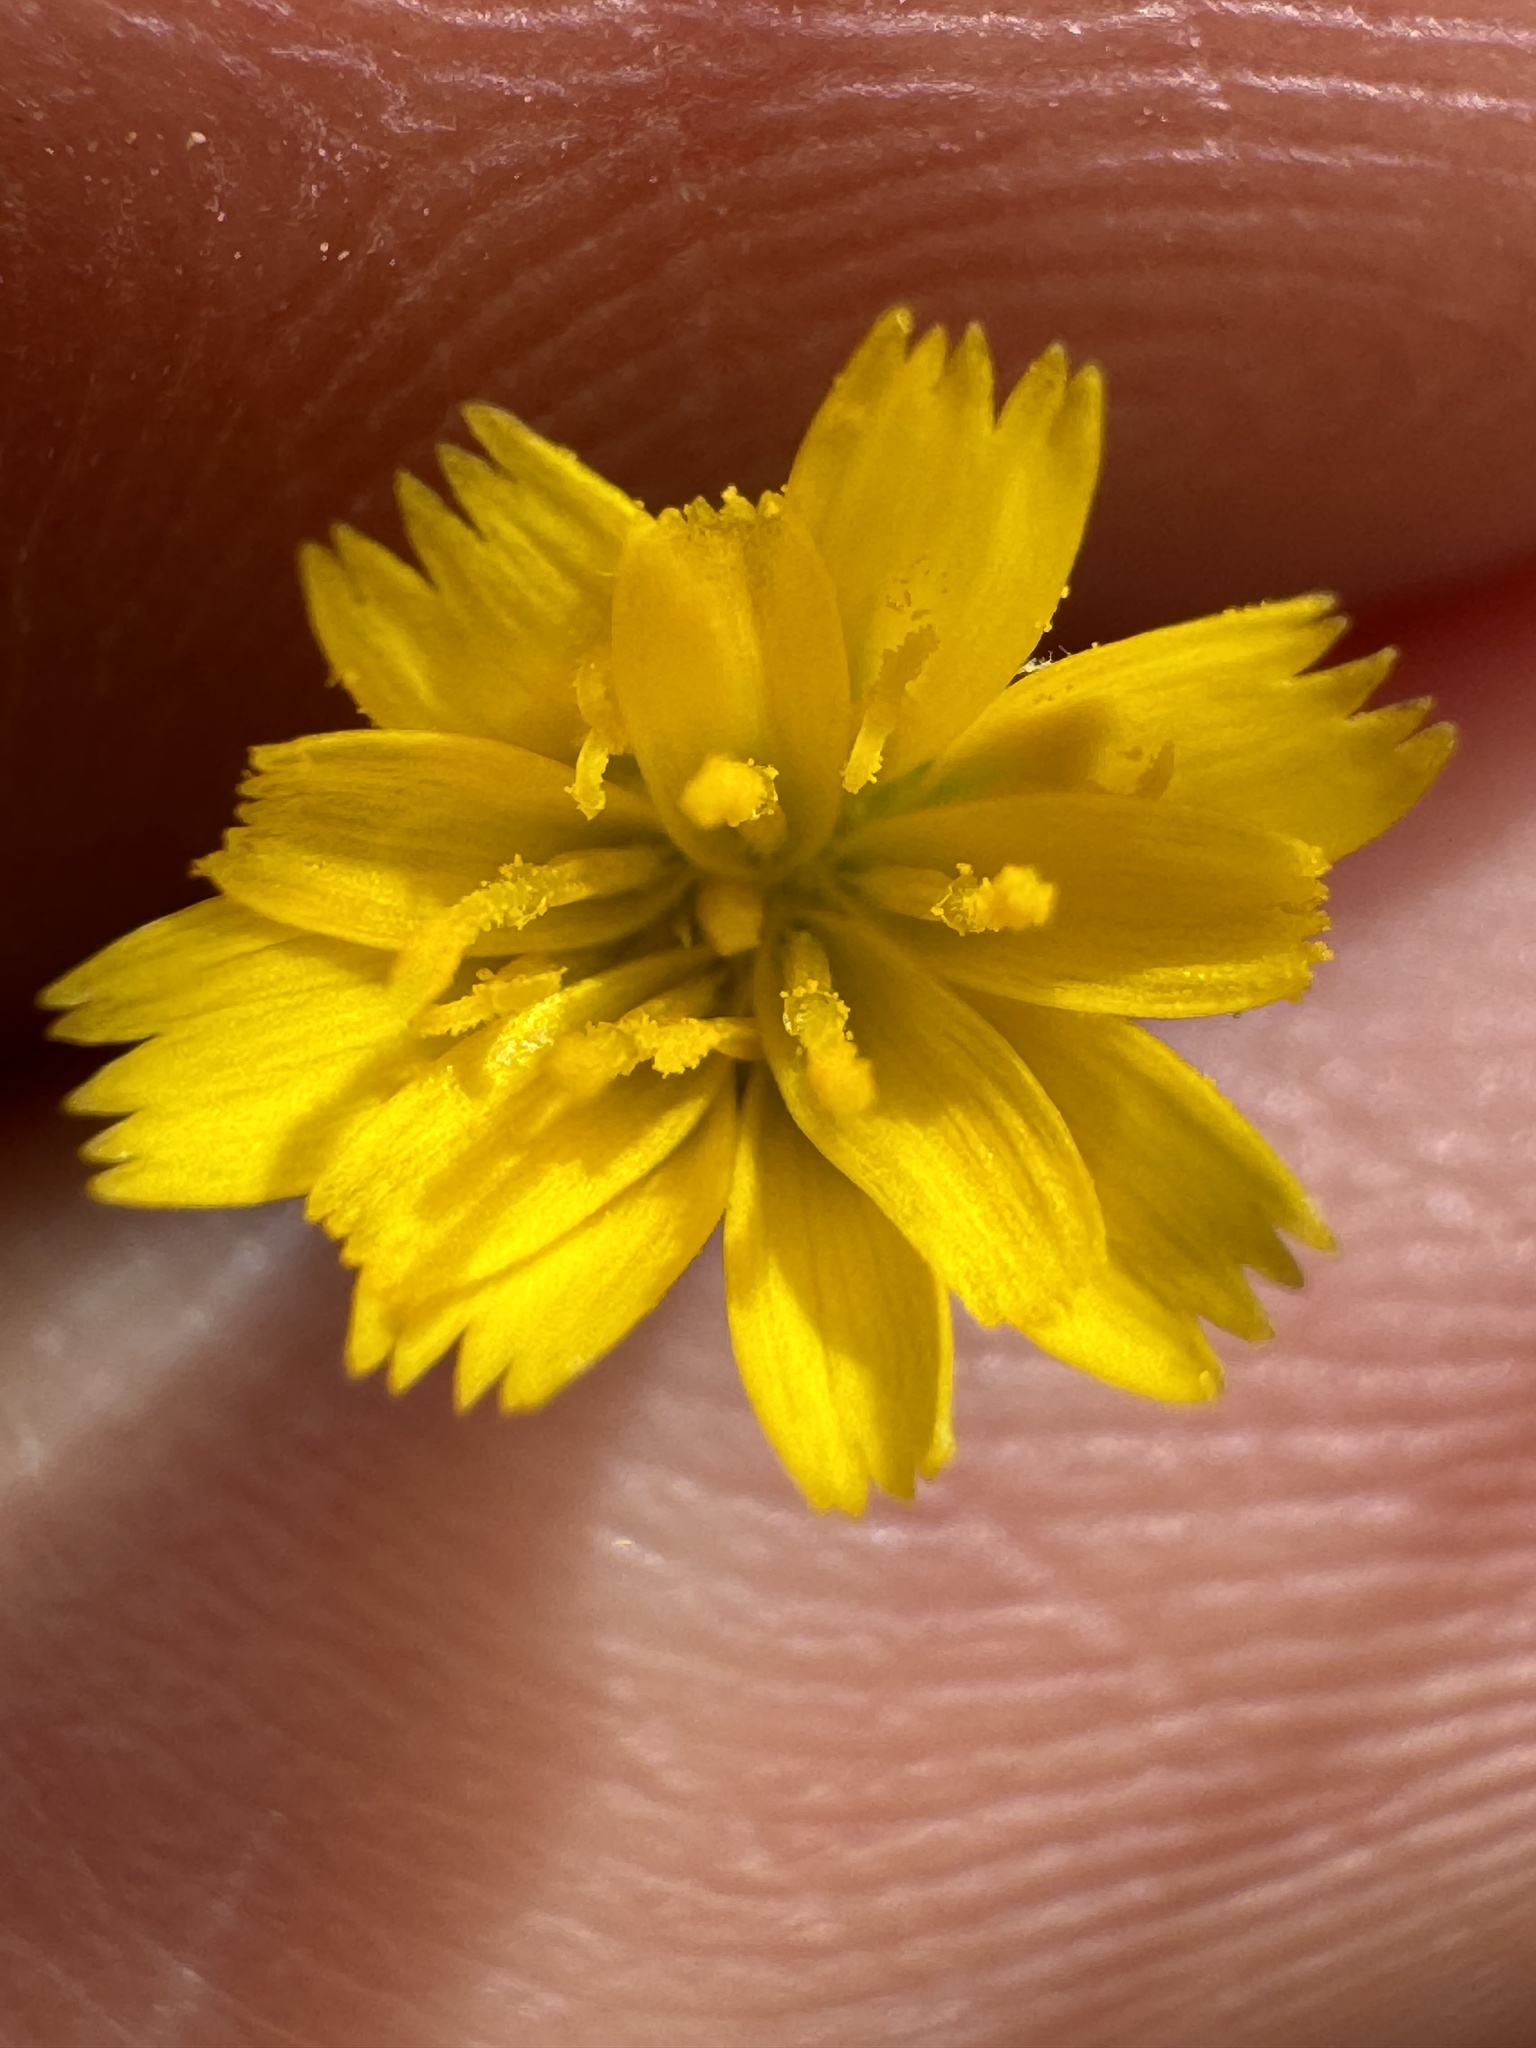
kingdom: Plantae
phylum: Tracheophyta
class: Magnoliopsida
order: Asterales
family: Asteraceae
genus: Hypochaeris
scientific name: Hypochaeris glabra
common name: Smooth catsear
